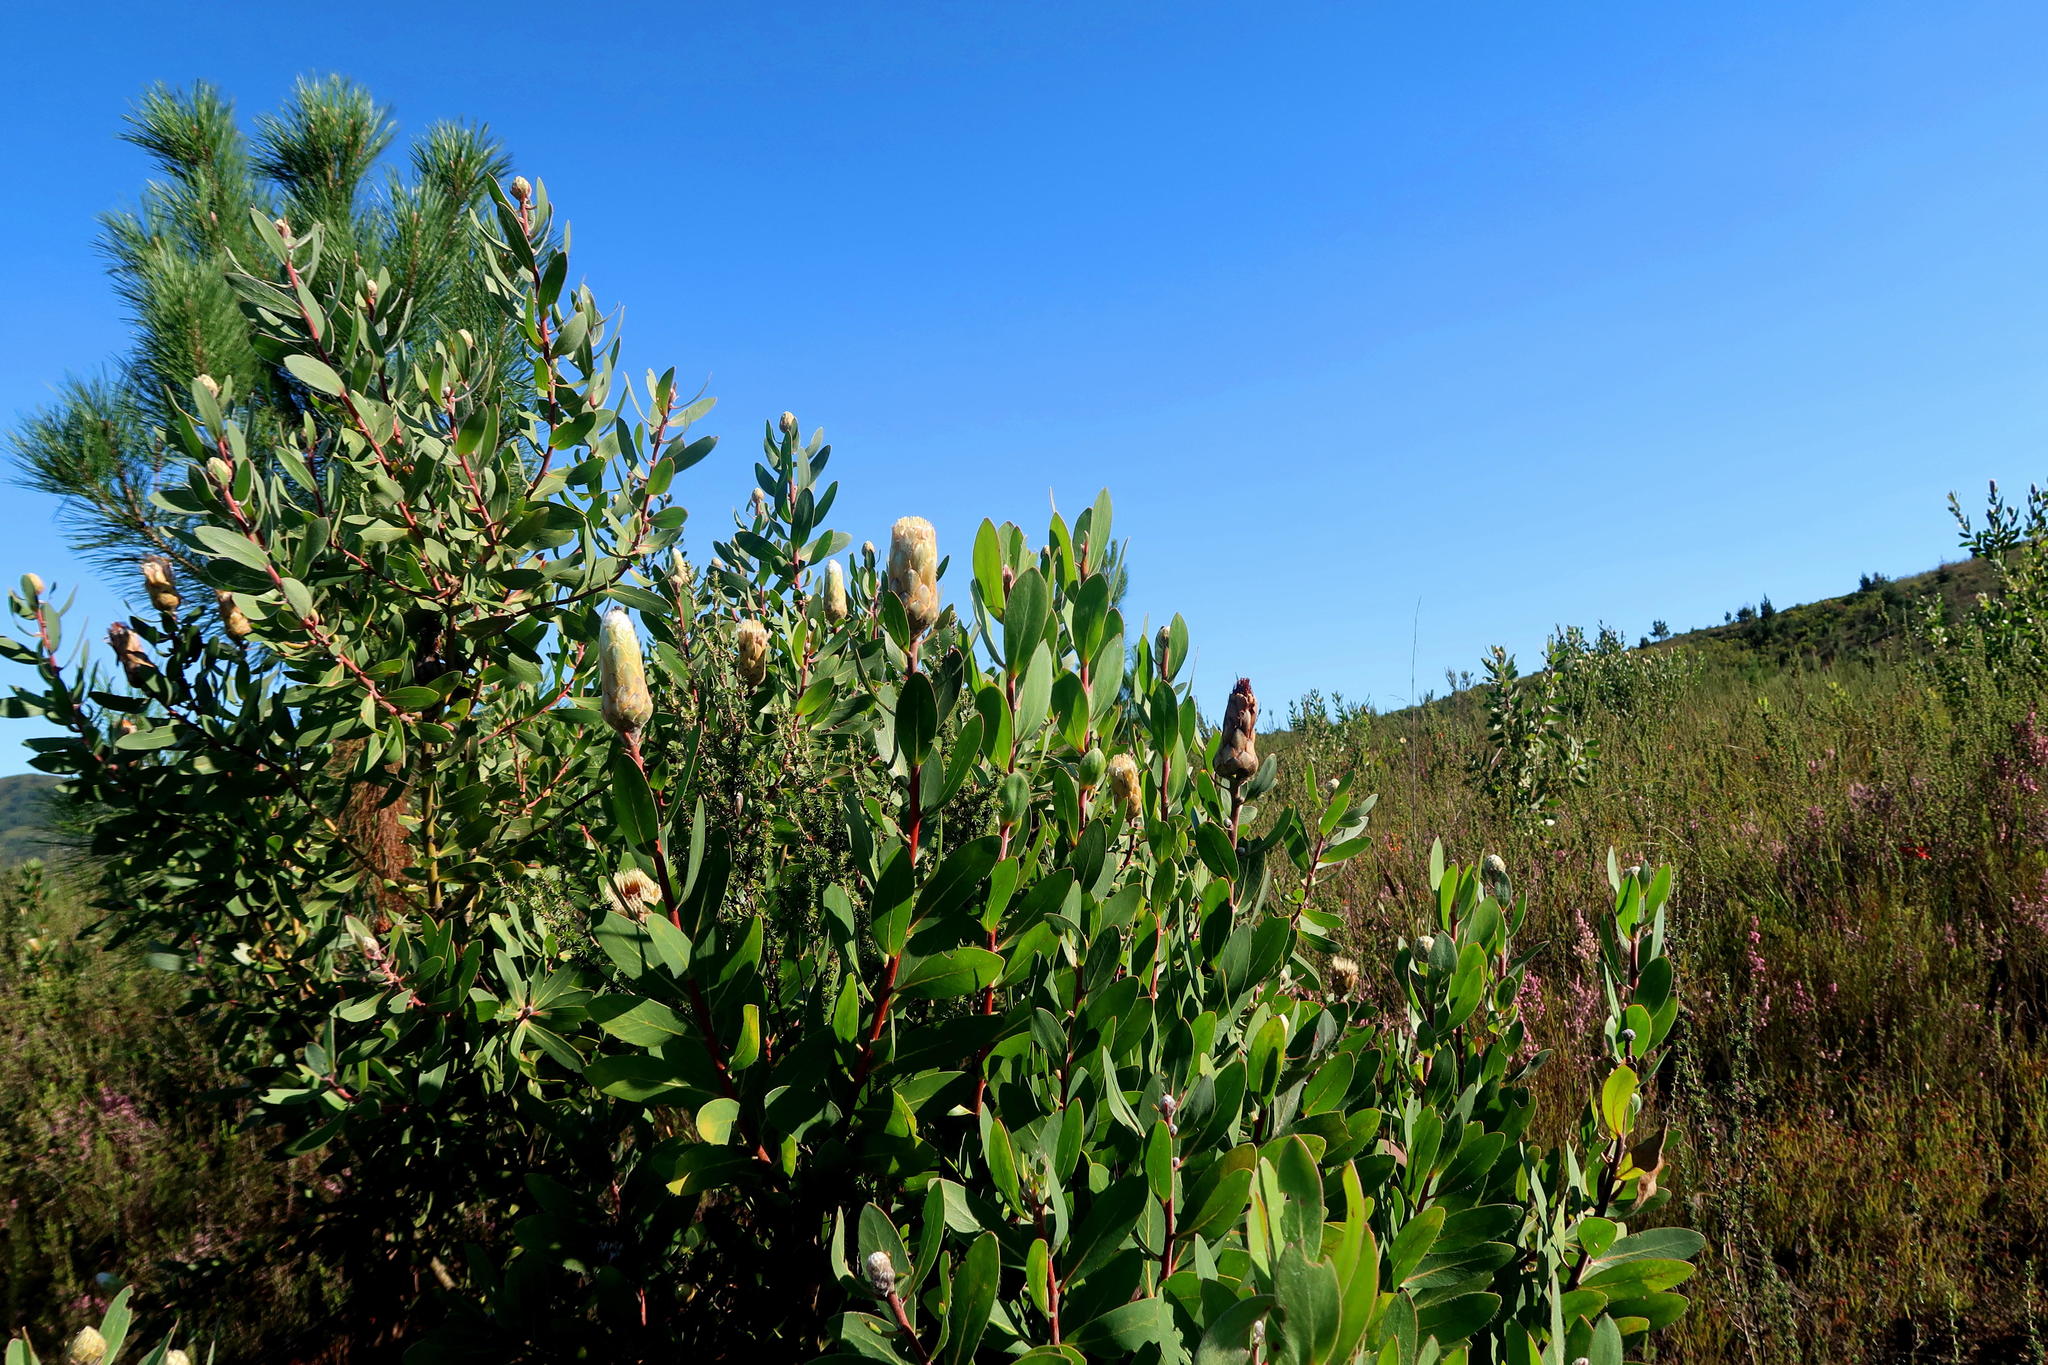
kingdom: Plantae
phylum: Tracheophyta
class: Magnoliopsida
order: Proteales
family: Proteaceae
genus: Protea
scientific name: Protea mundii
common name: Forest sugarbush
